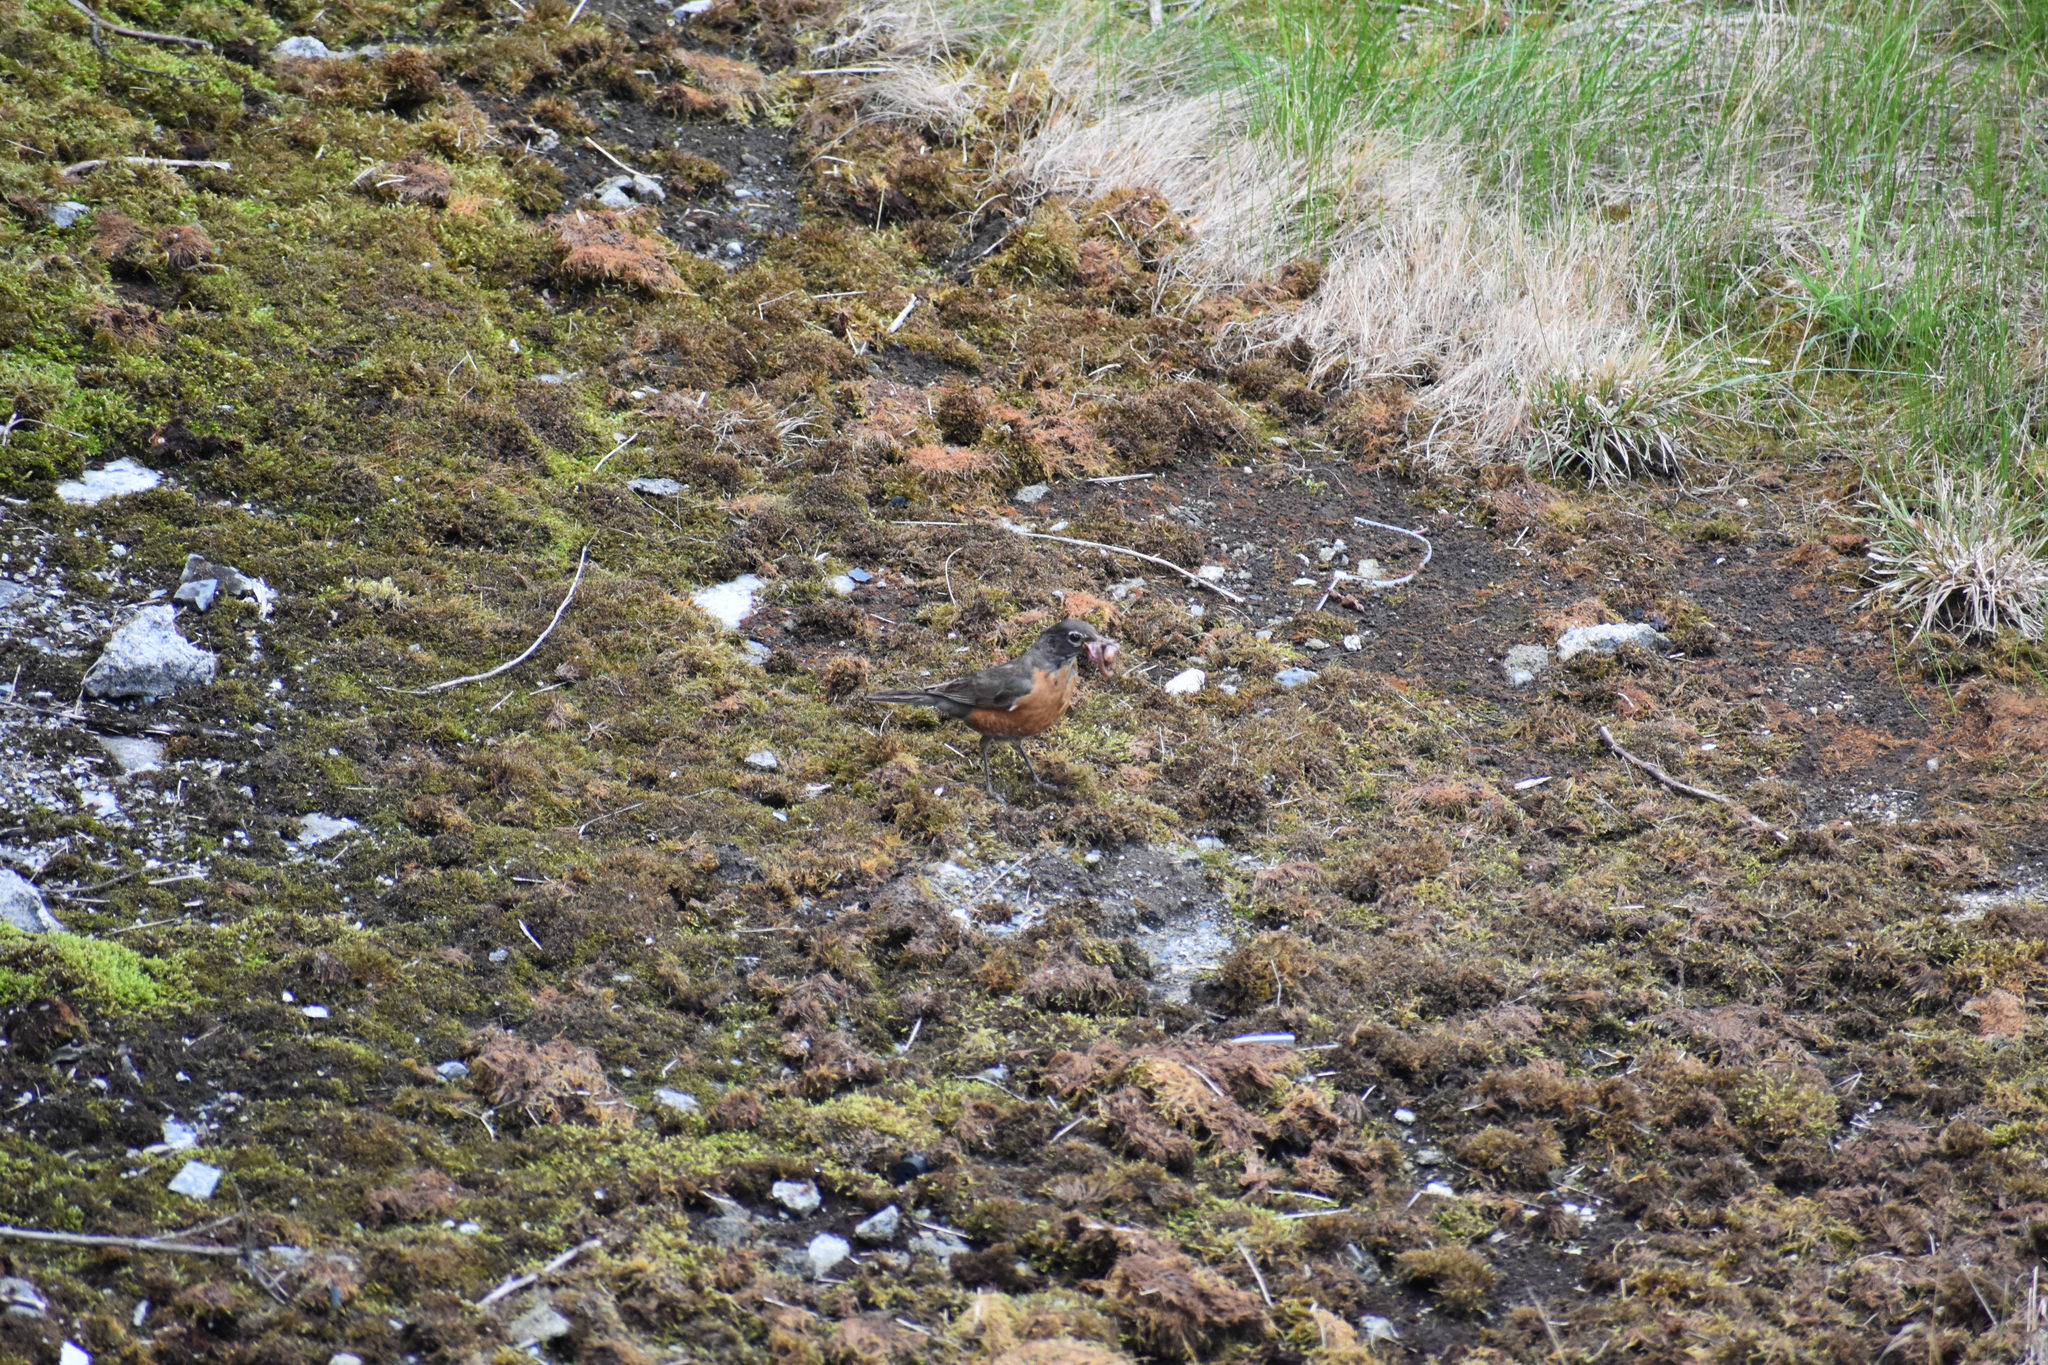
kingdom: Animalia
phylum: Chordata
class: Aves
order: Passeriformes
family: Turdidae
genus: Turdus
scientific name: Turdus migratorius
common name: American robin
